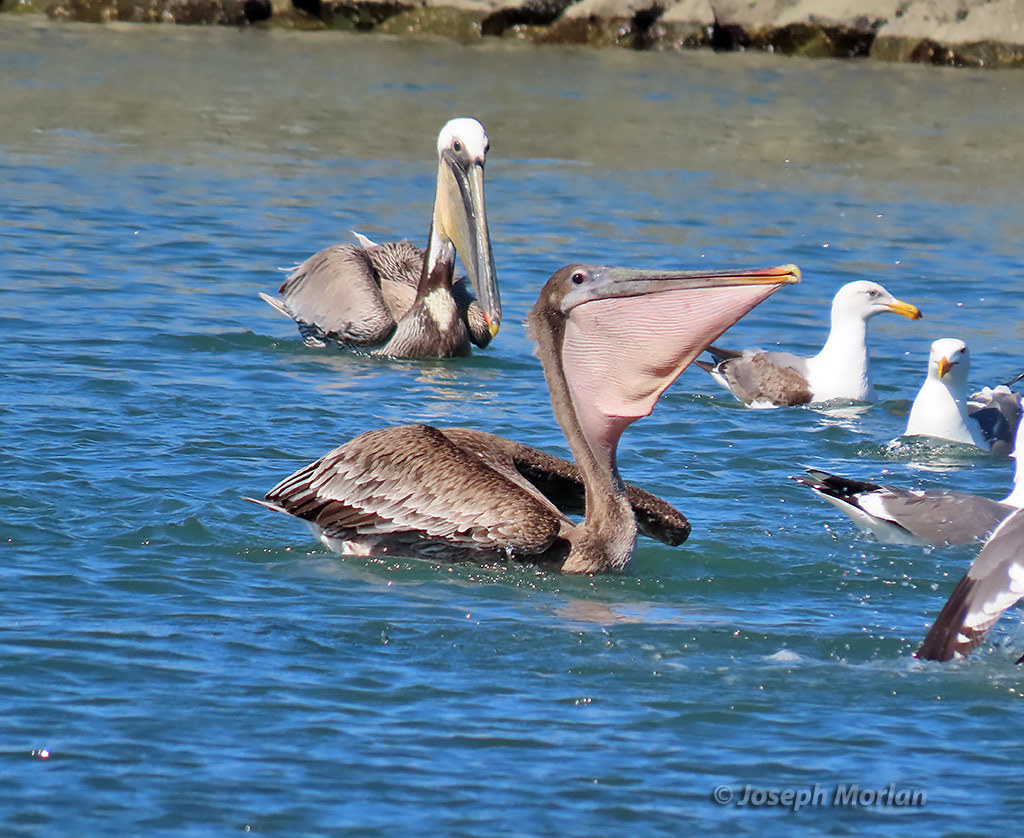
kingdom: Animalia
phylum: Chordata
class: Aves
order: Pelecaniformes
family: Pelecanidae
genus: Pelecanus
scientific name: Pelecanus occidentalis
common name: Brown pelican
